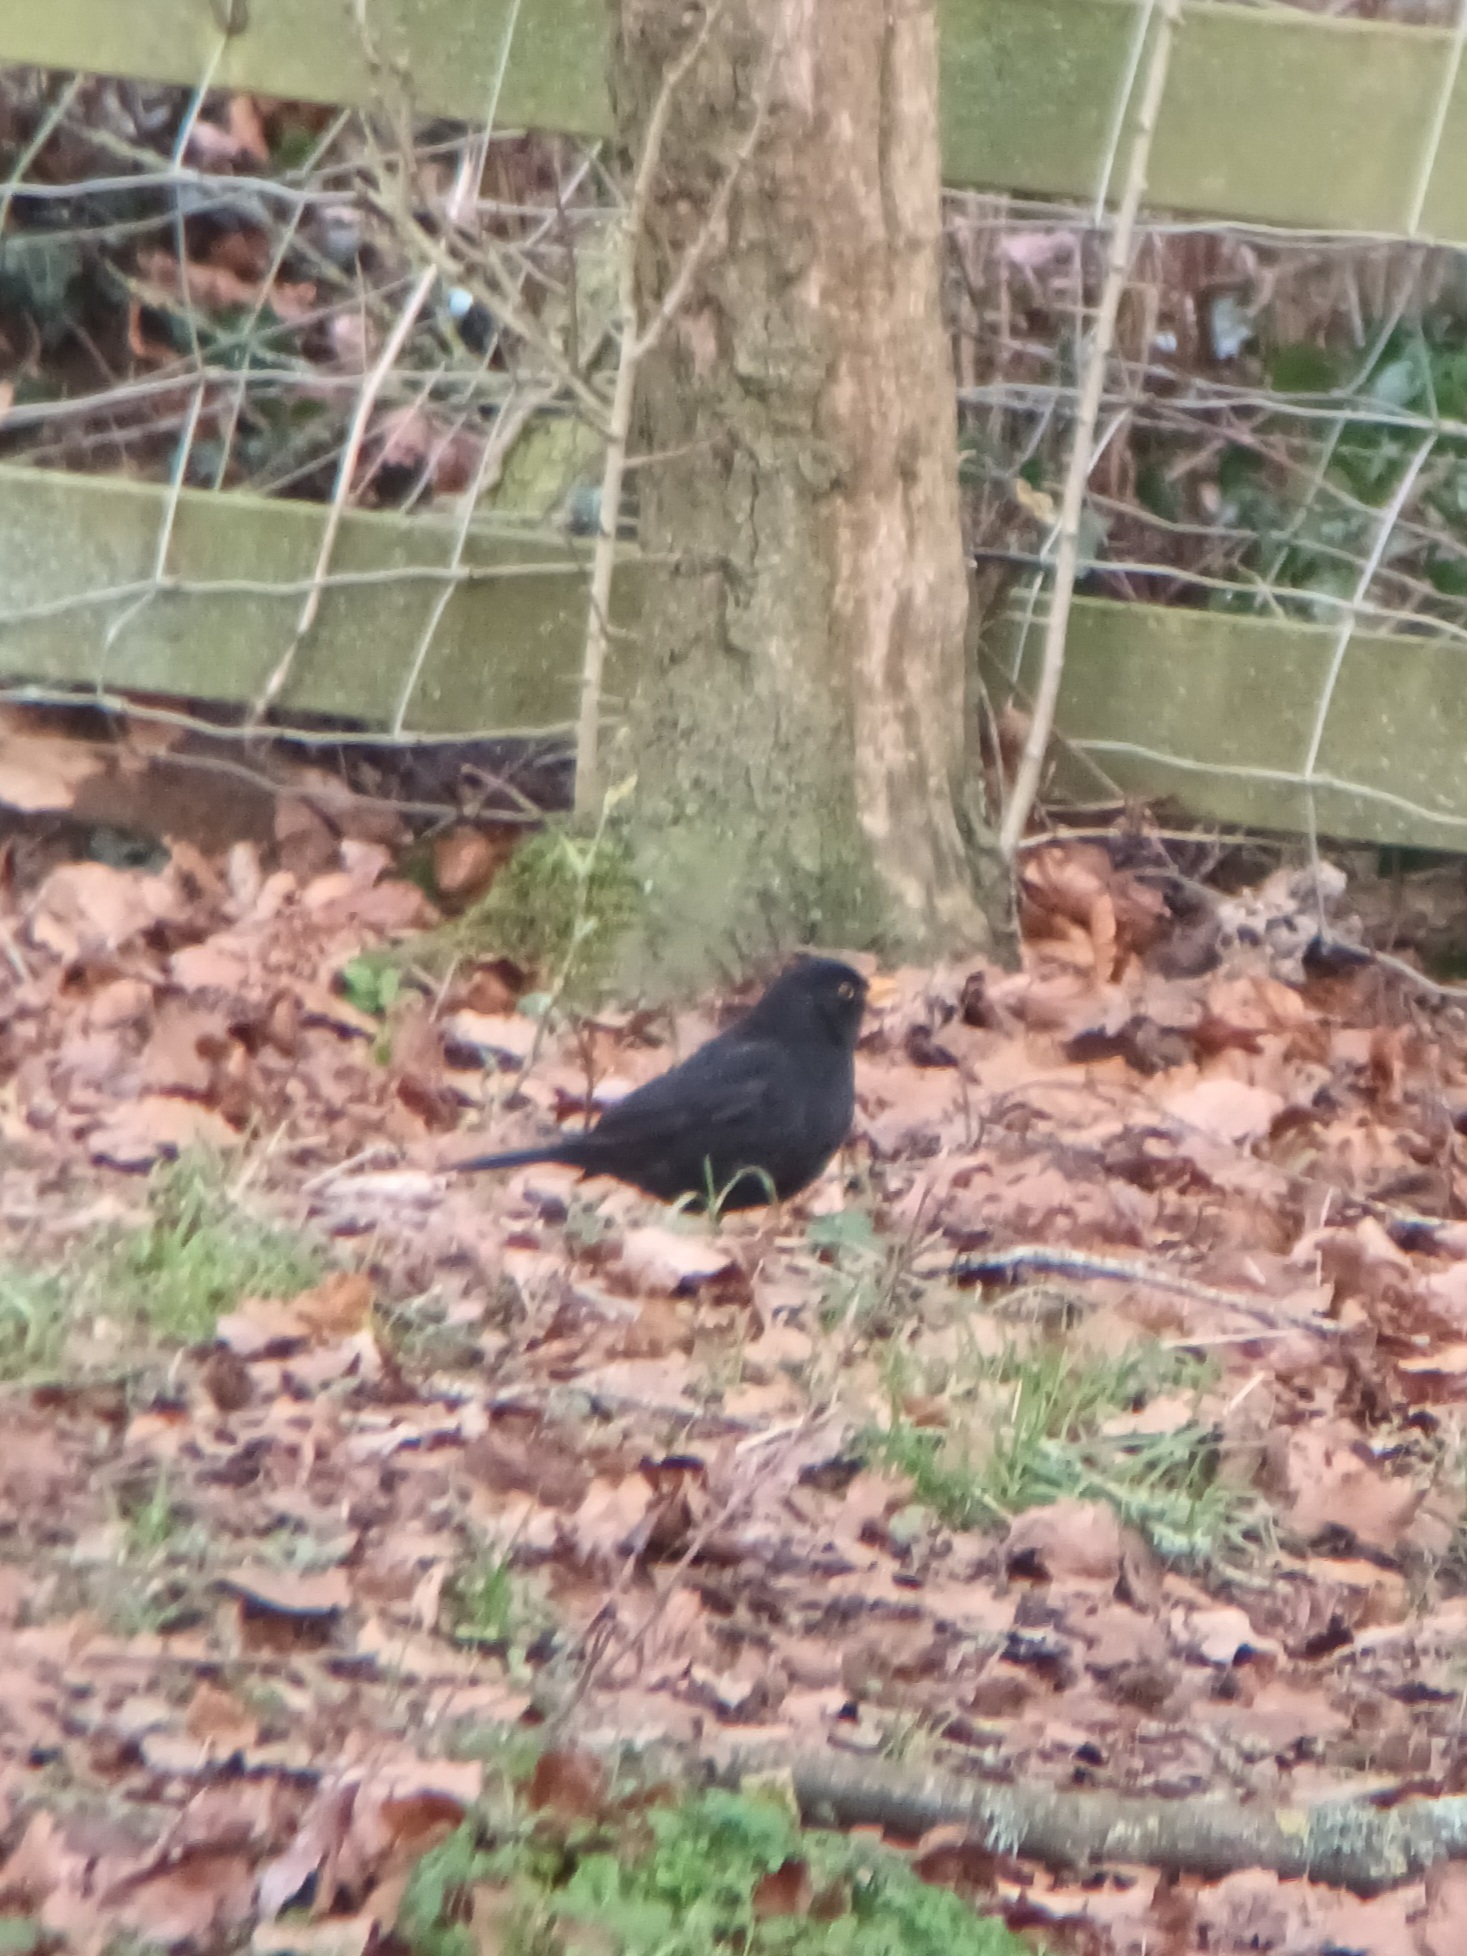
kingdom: Animalia
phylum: Chordata
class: Aves
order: Passeriformes
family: Turdidae
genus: Turdus
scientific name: Turdus merula
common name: Common blackbird
